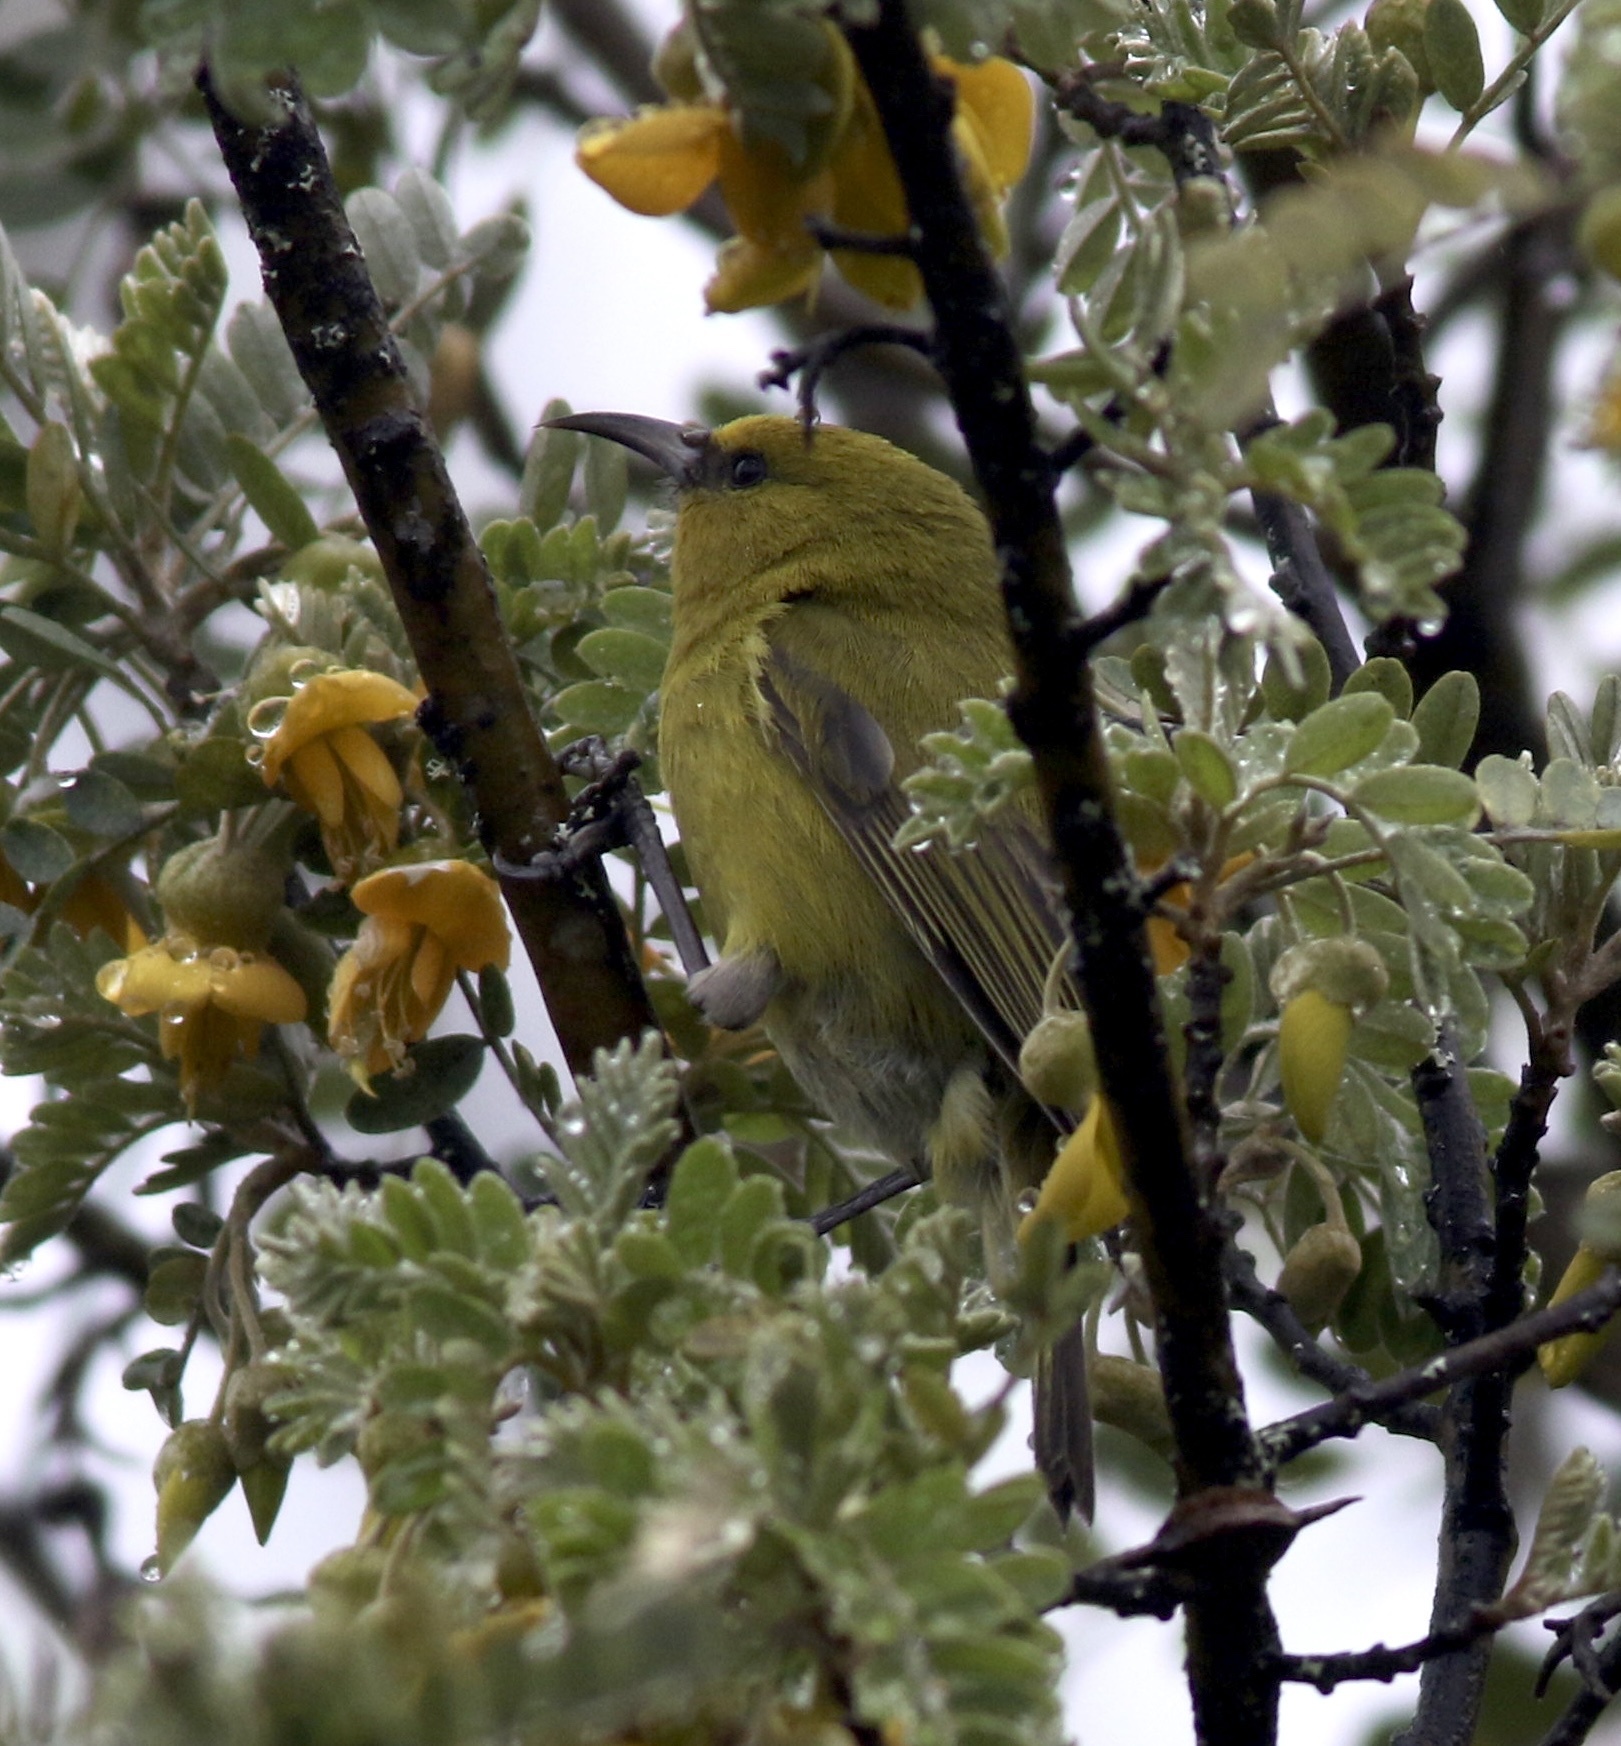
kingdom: Animalia
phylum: Chordata
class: Aves
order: Passeriformes
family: Fringillidae
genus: Chlorodrepanis
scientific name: Chlorodrepanis virens
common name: Hawaii amakihi
